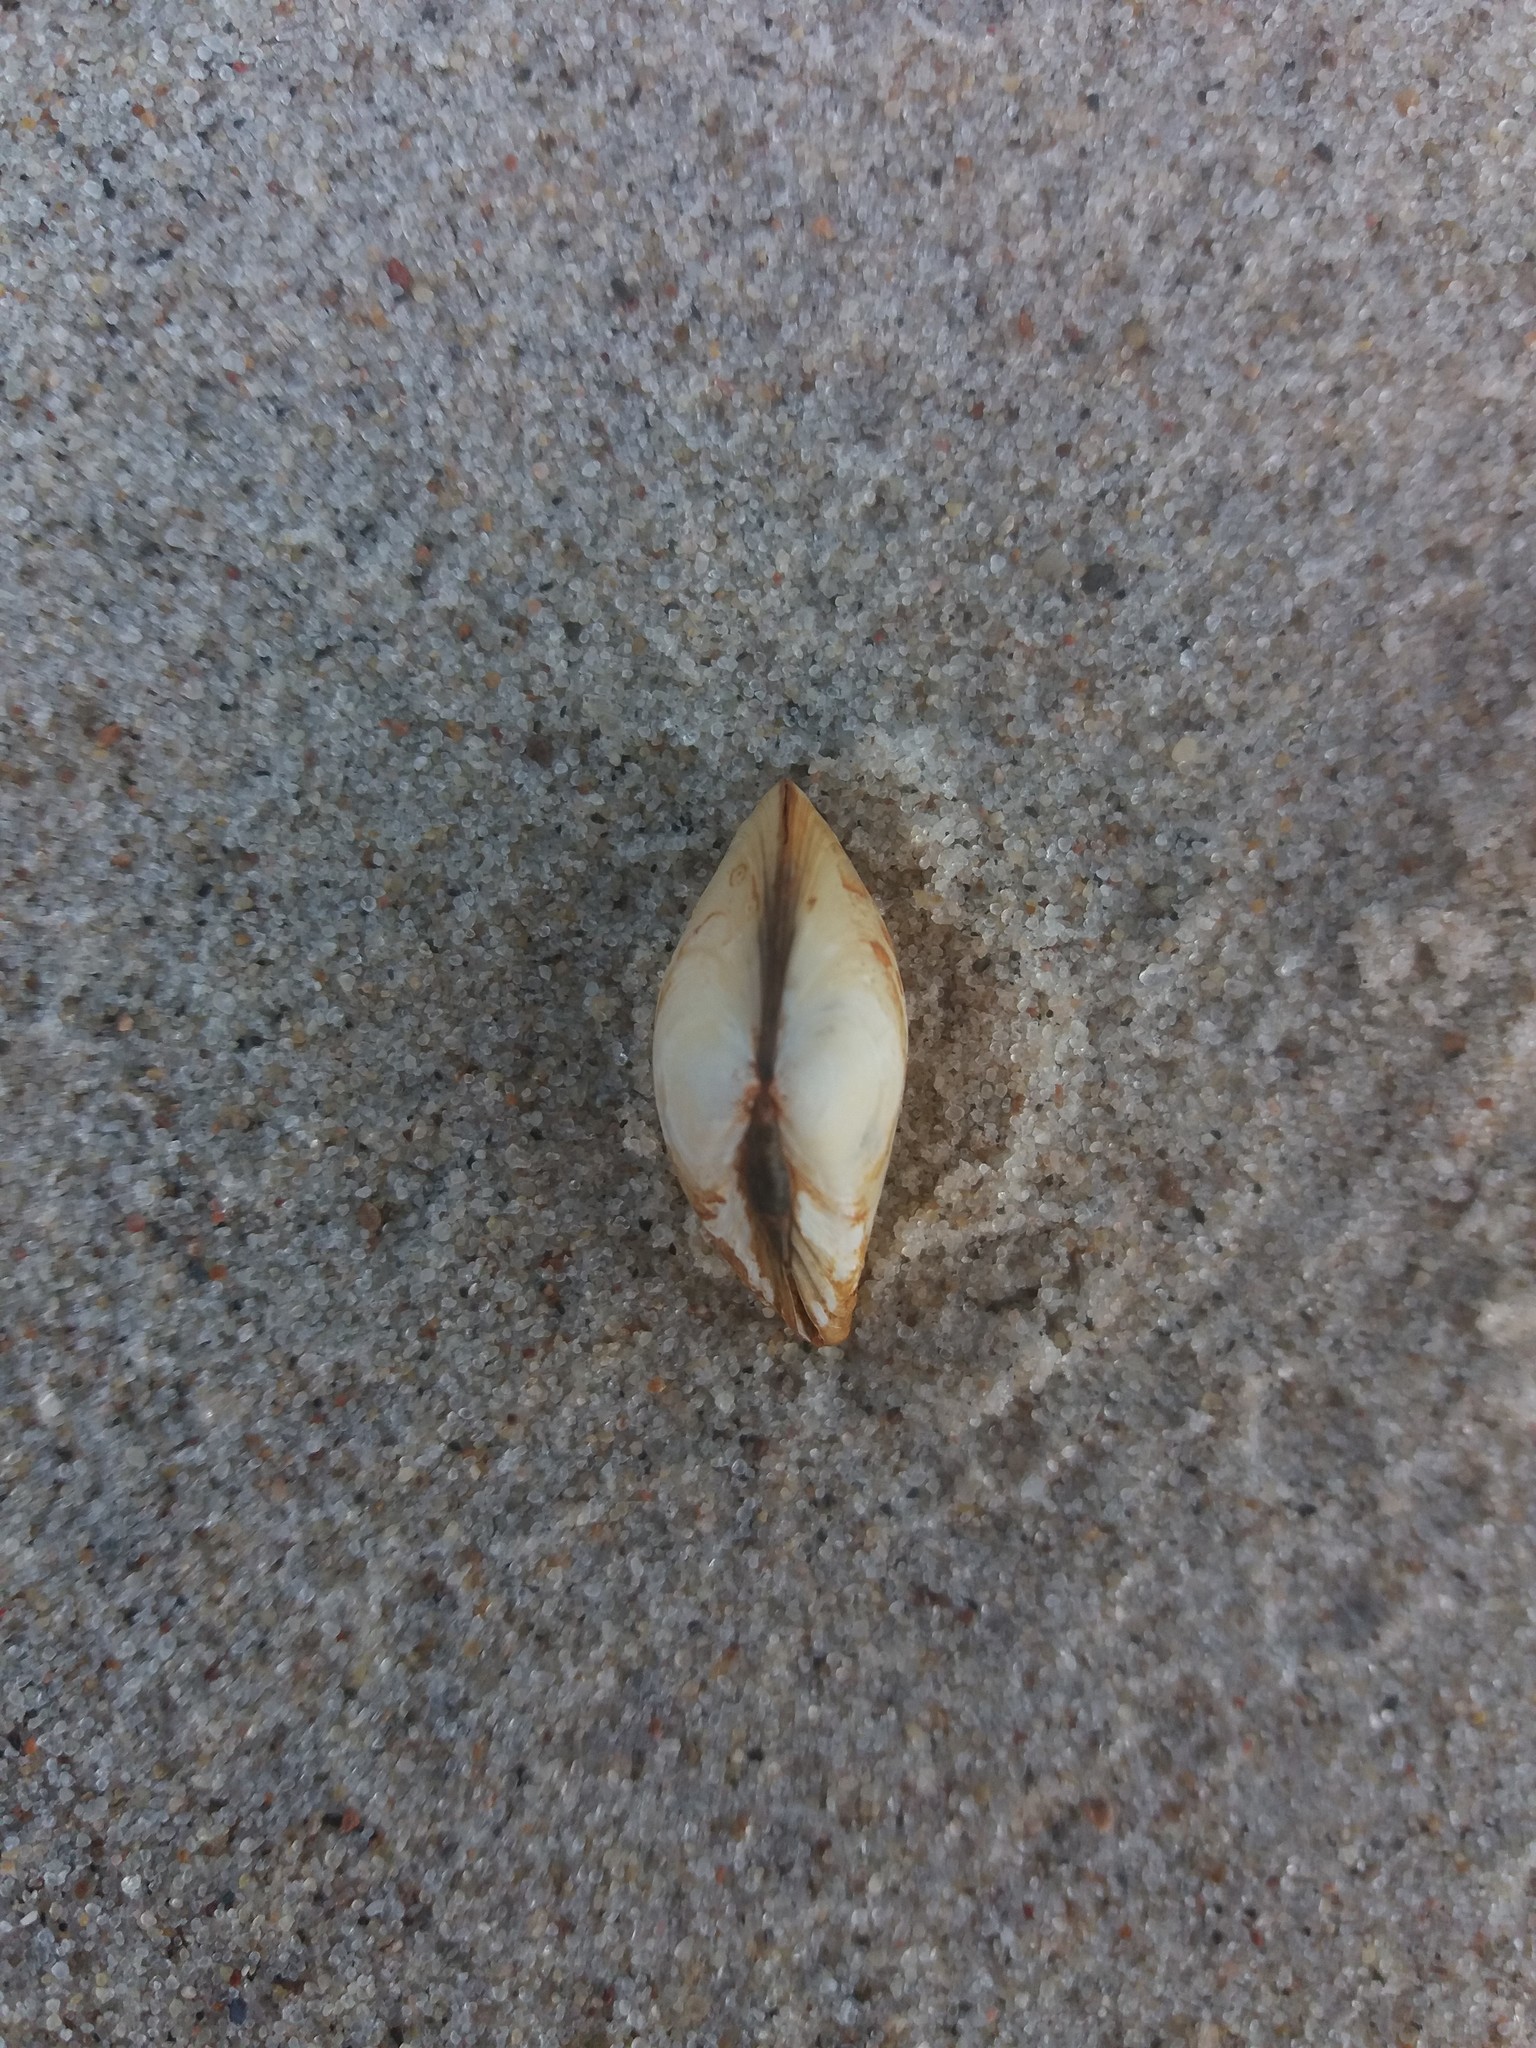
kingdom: Animalia
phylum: Mollusca
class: Bivalvia
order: Cardiida
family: Tellinidae
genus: Macoma
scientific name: Macoma balthica
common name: Baltic tellin
